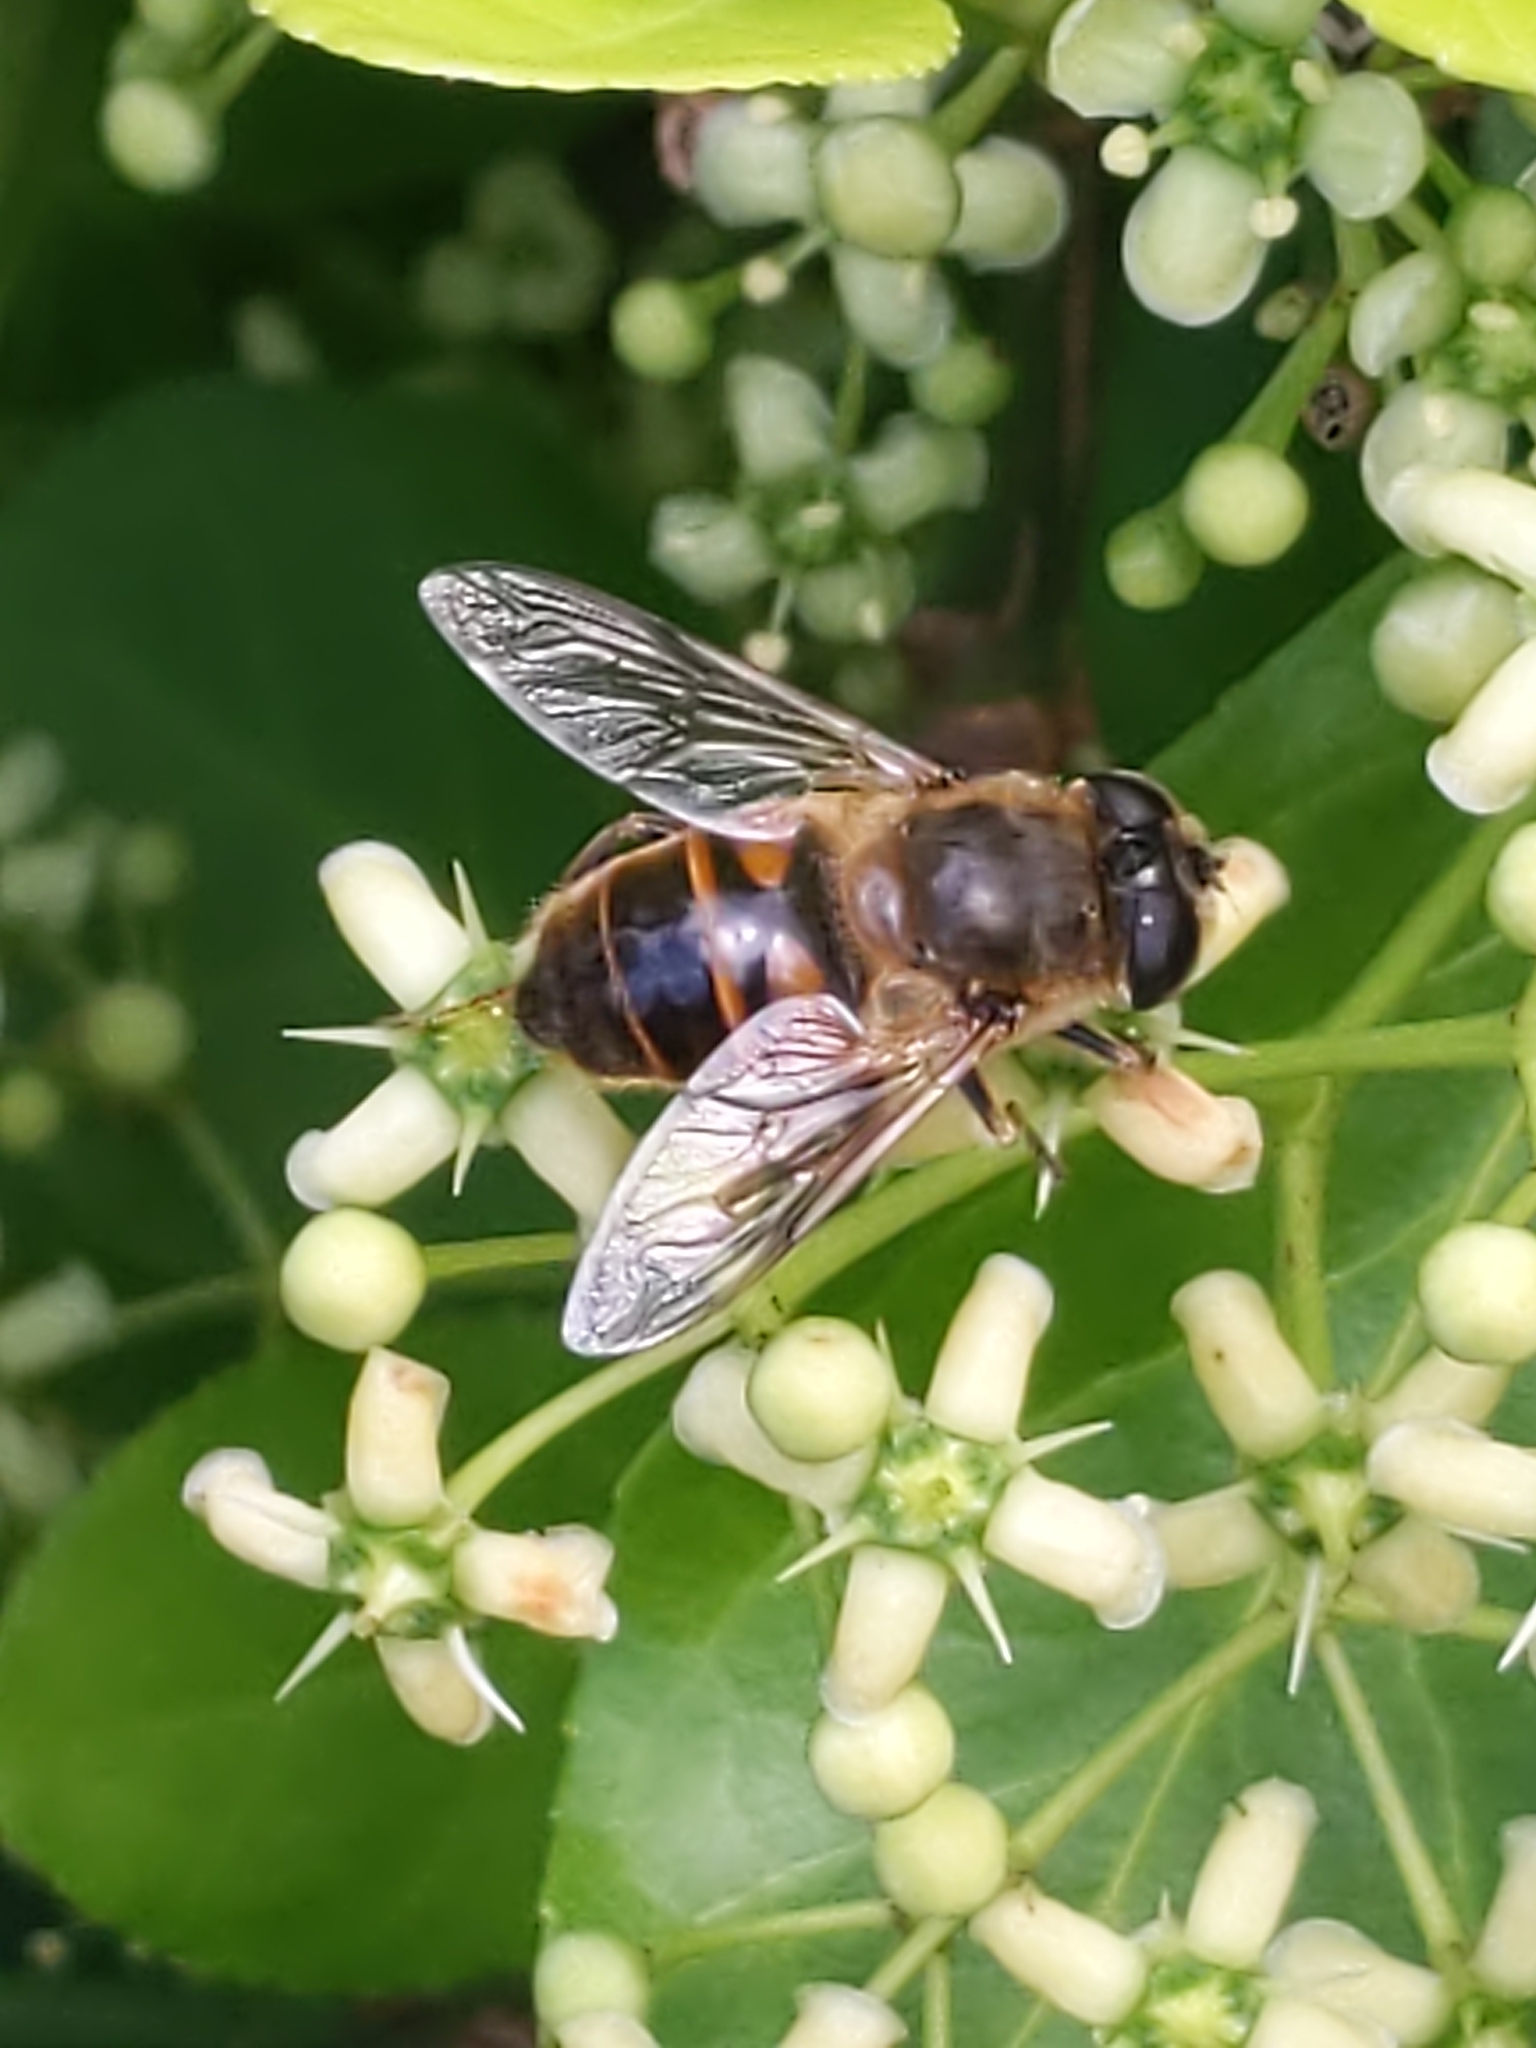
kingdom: Animalia
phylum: Arthropoda
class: Insecta
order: Diptera
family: Syrphidae
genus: Eristalis
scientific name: Eristalis tenax
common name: Drone fly
